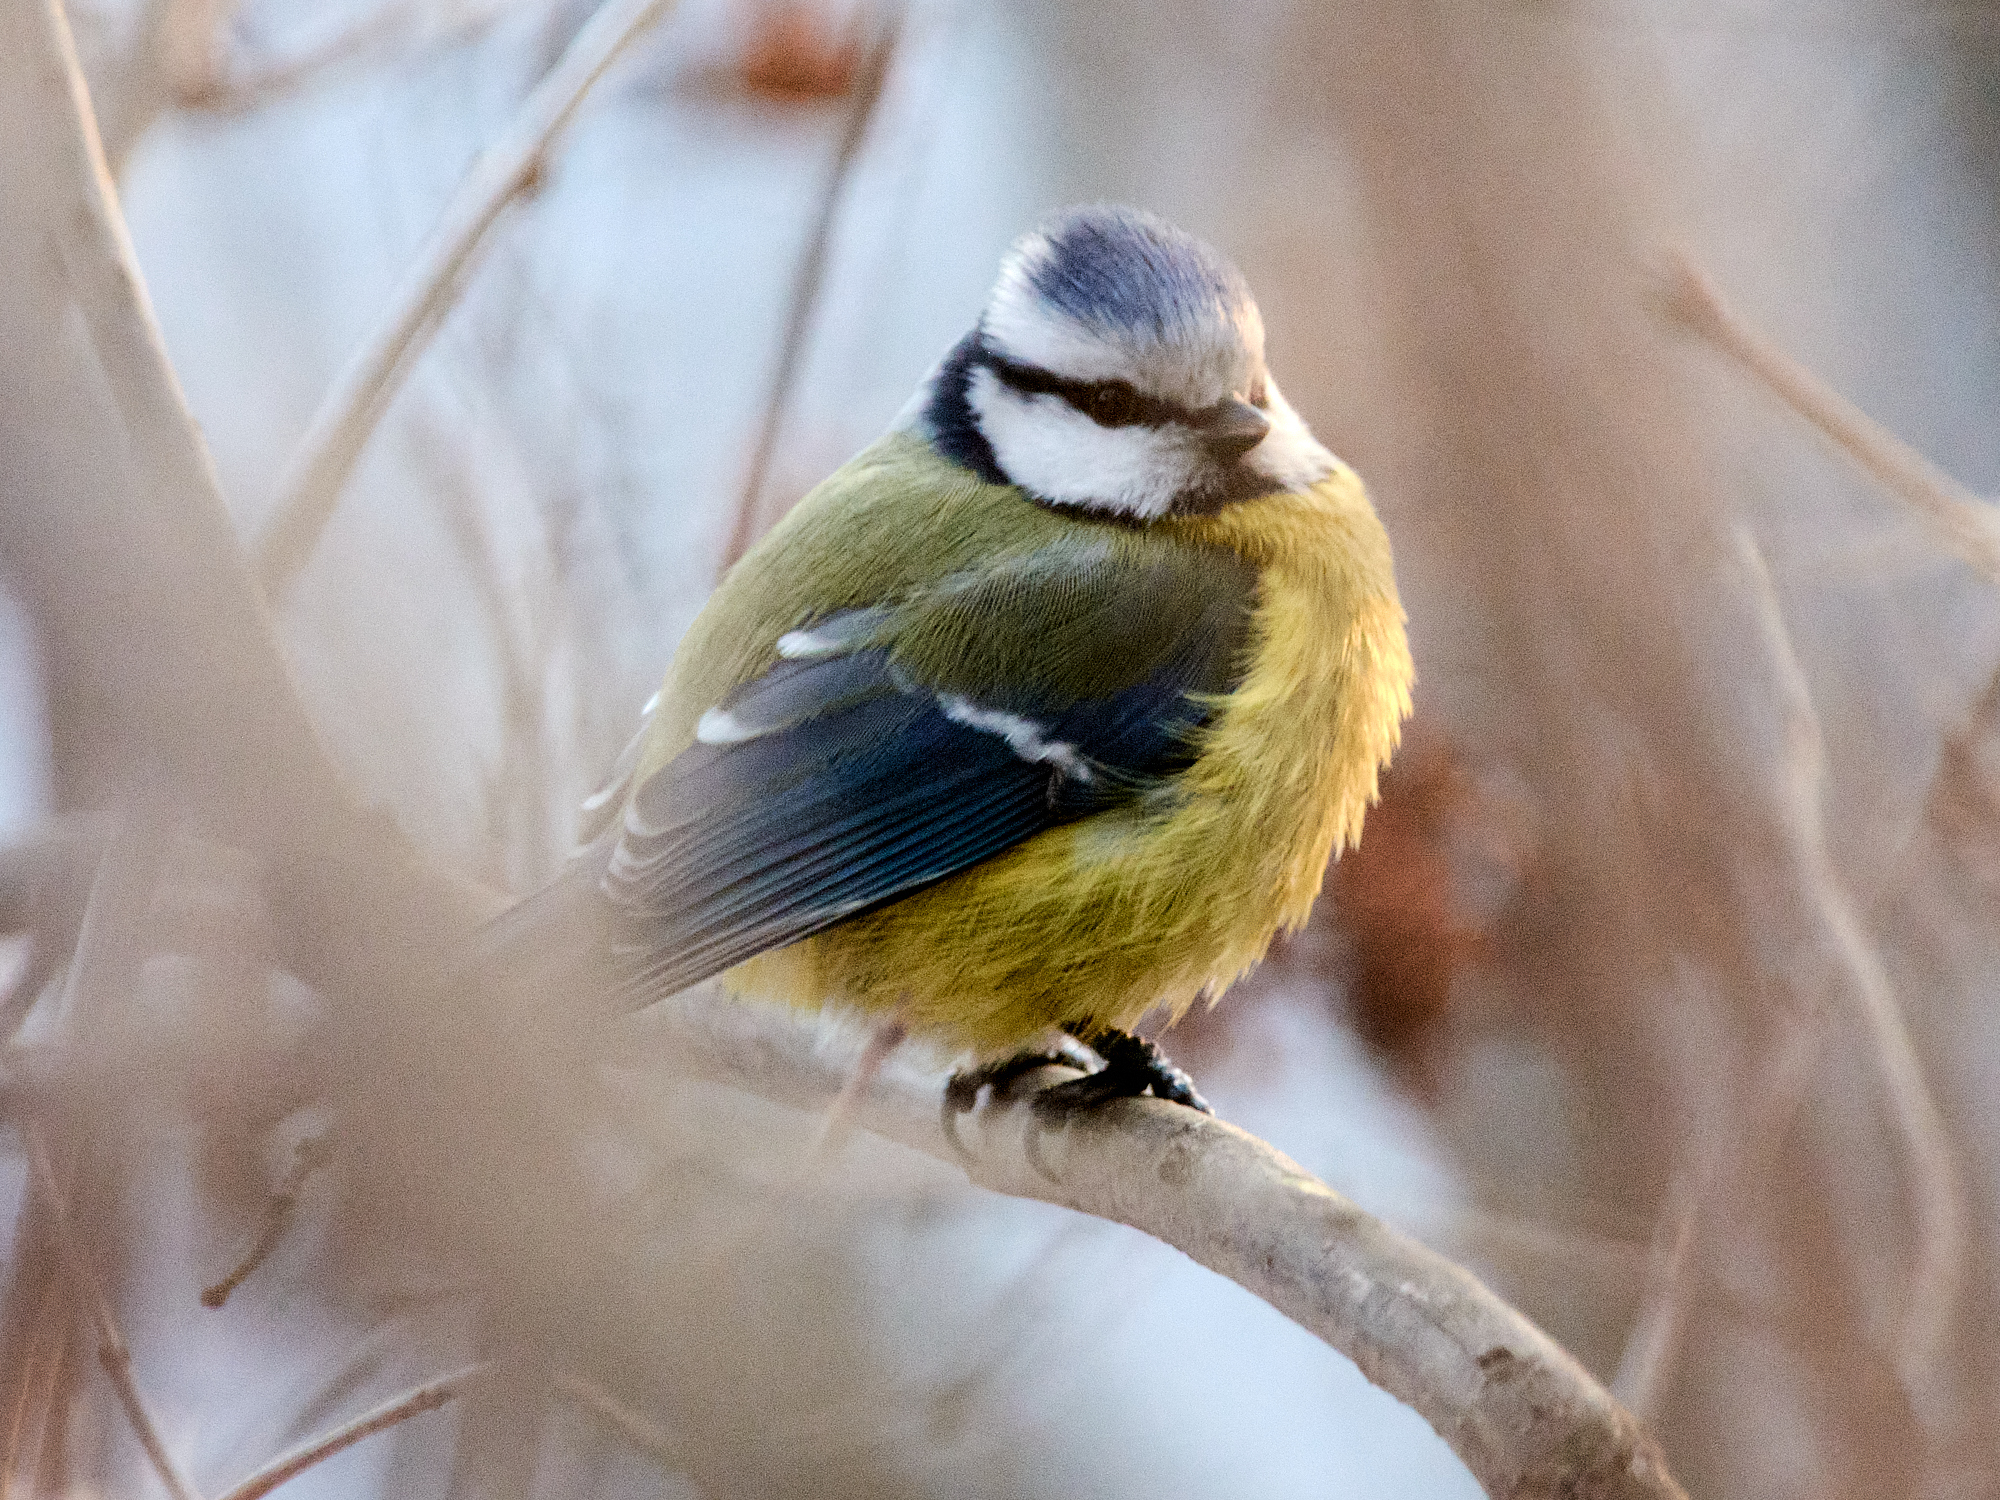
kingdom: Animalia
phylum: Chordata
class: Aves
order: Passeriformes
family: Paridae
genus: Cyanistes
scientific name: Cyanistes caeruleus
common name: Eurasian blue tit
